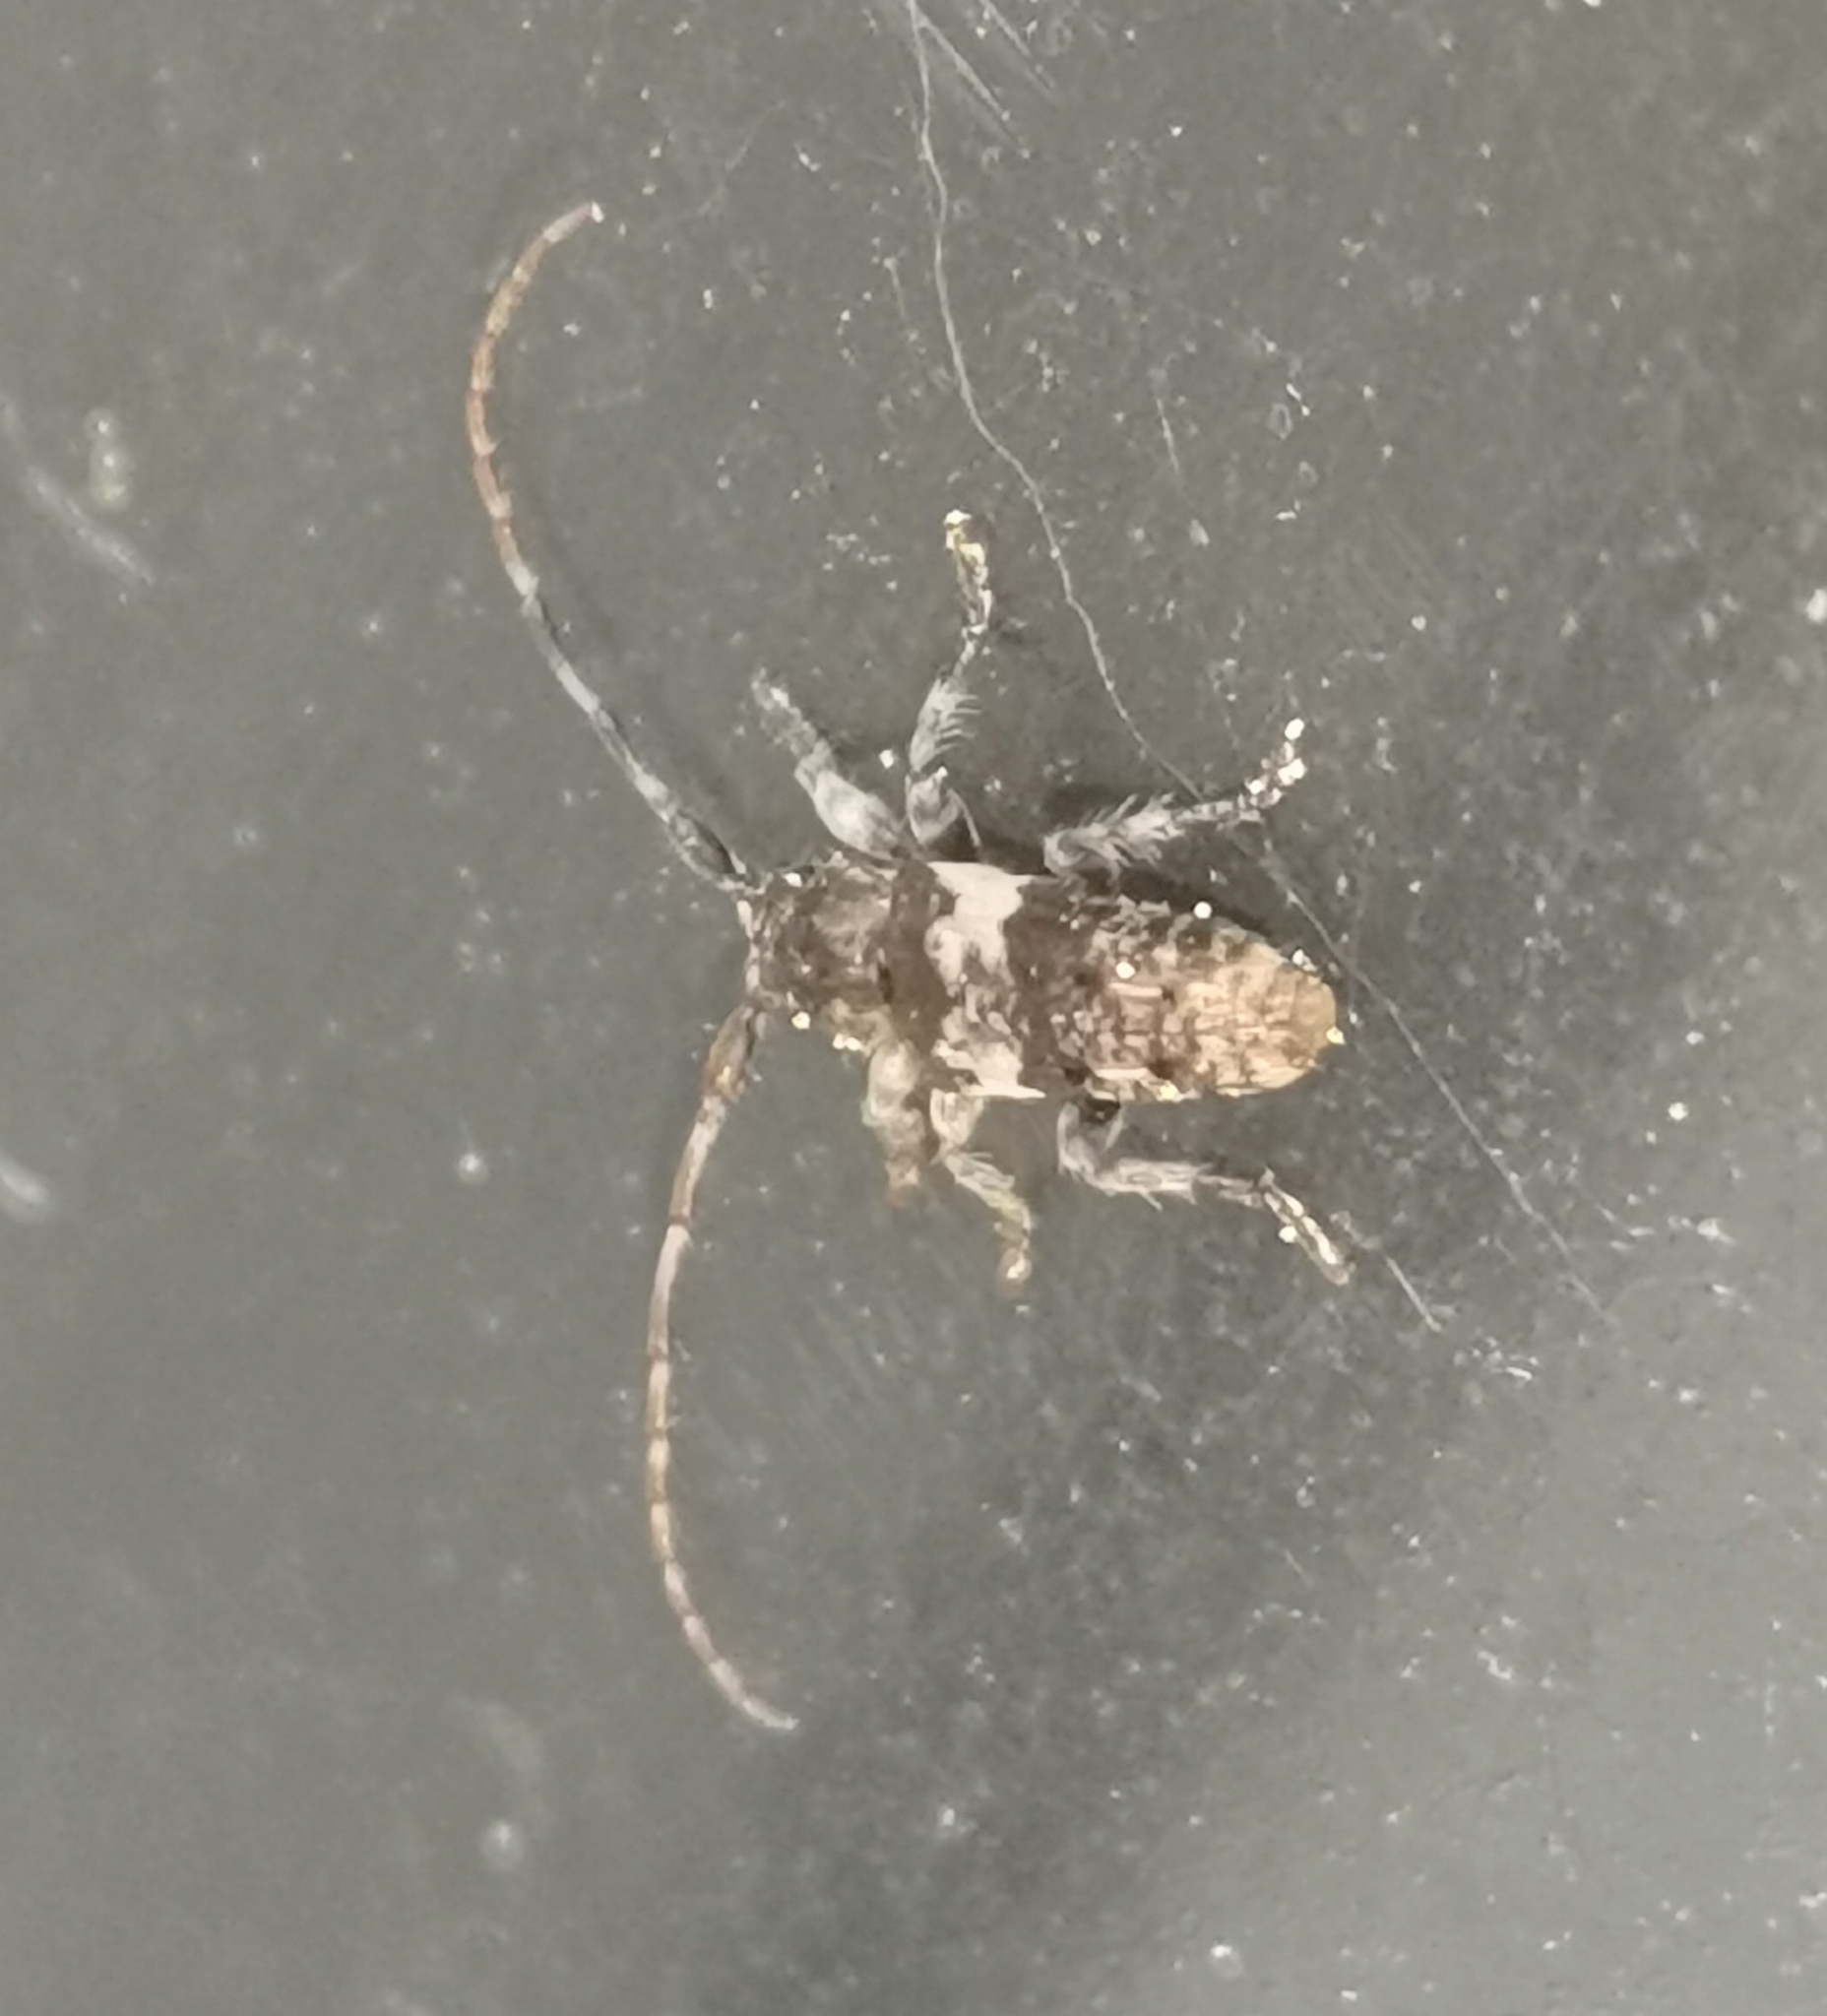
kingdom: Animalia
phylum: Arthropoda
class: Insecta
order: Coleoptera
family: Cerambycidae
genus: Pogonocherus
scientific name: Pogonocherus fasciculatus
